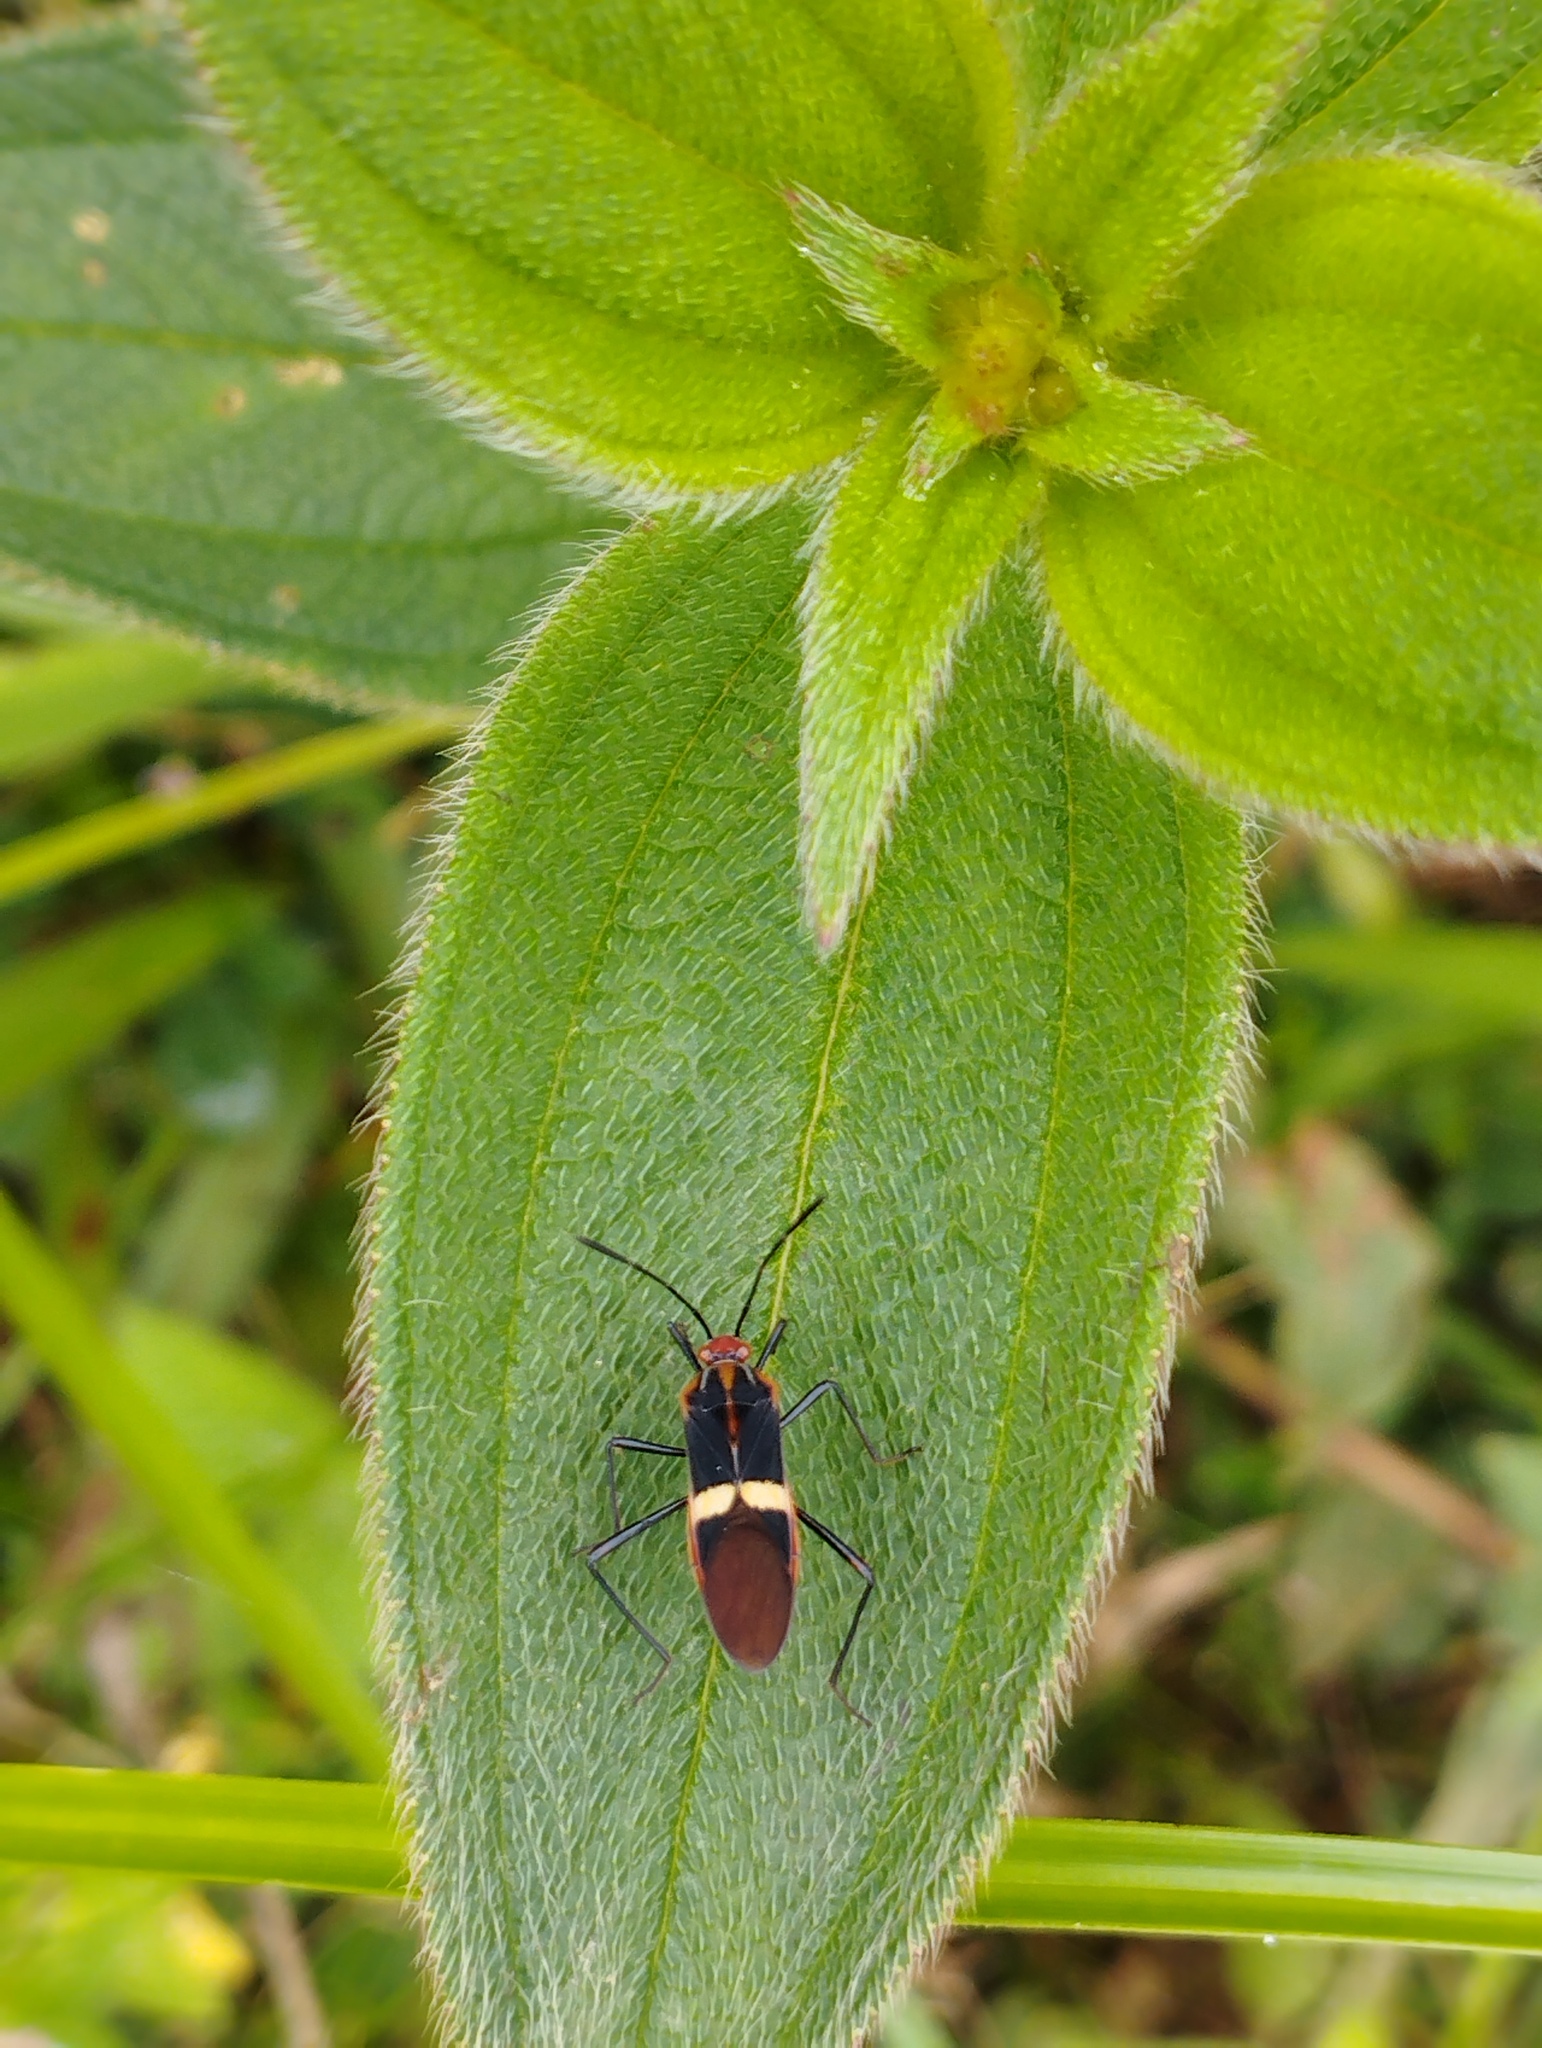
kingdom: Animalia
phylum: Arthropoda
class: Insecta
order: Hemiptera
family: Coreidae
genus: Hypselonotus
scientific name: Hypselonotus interruptus
